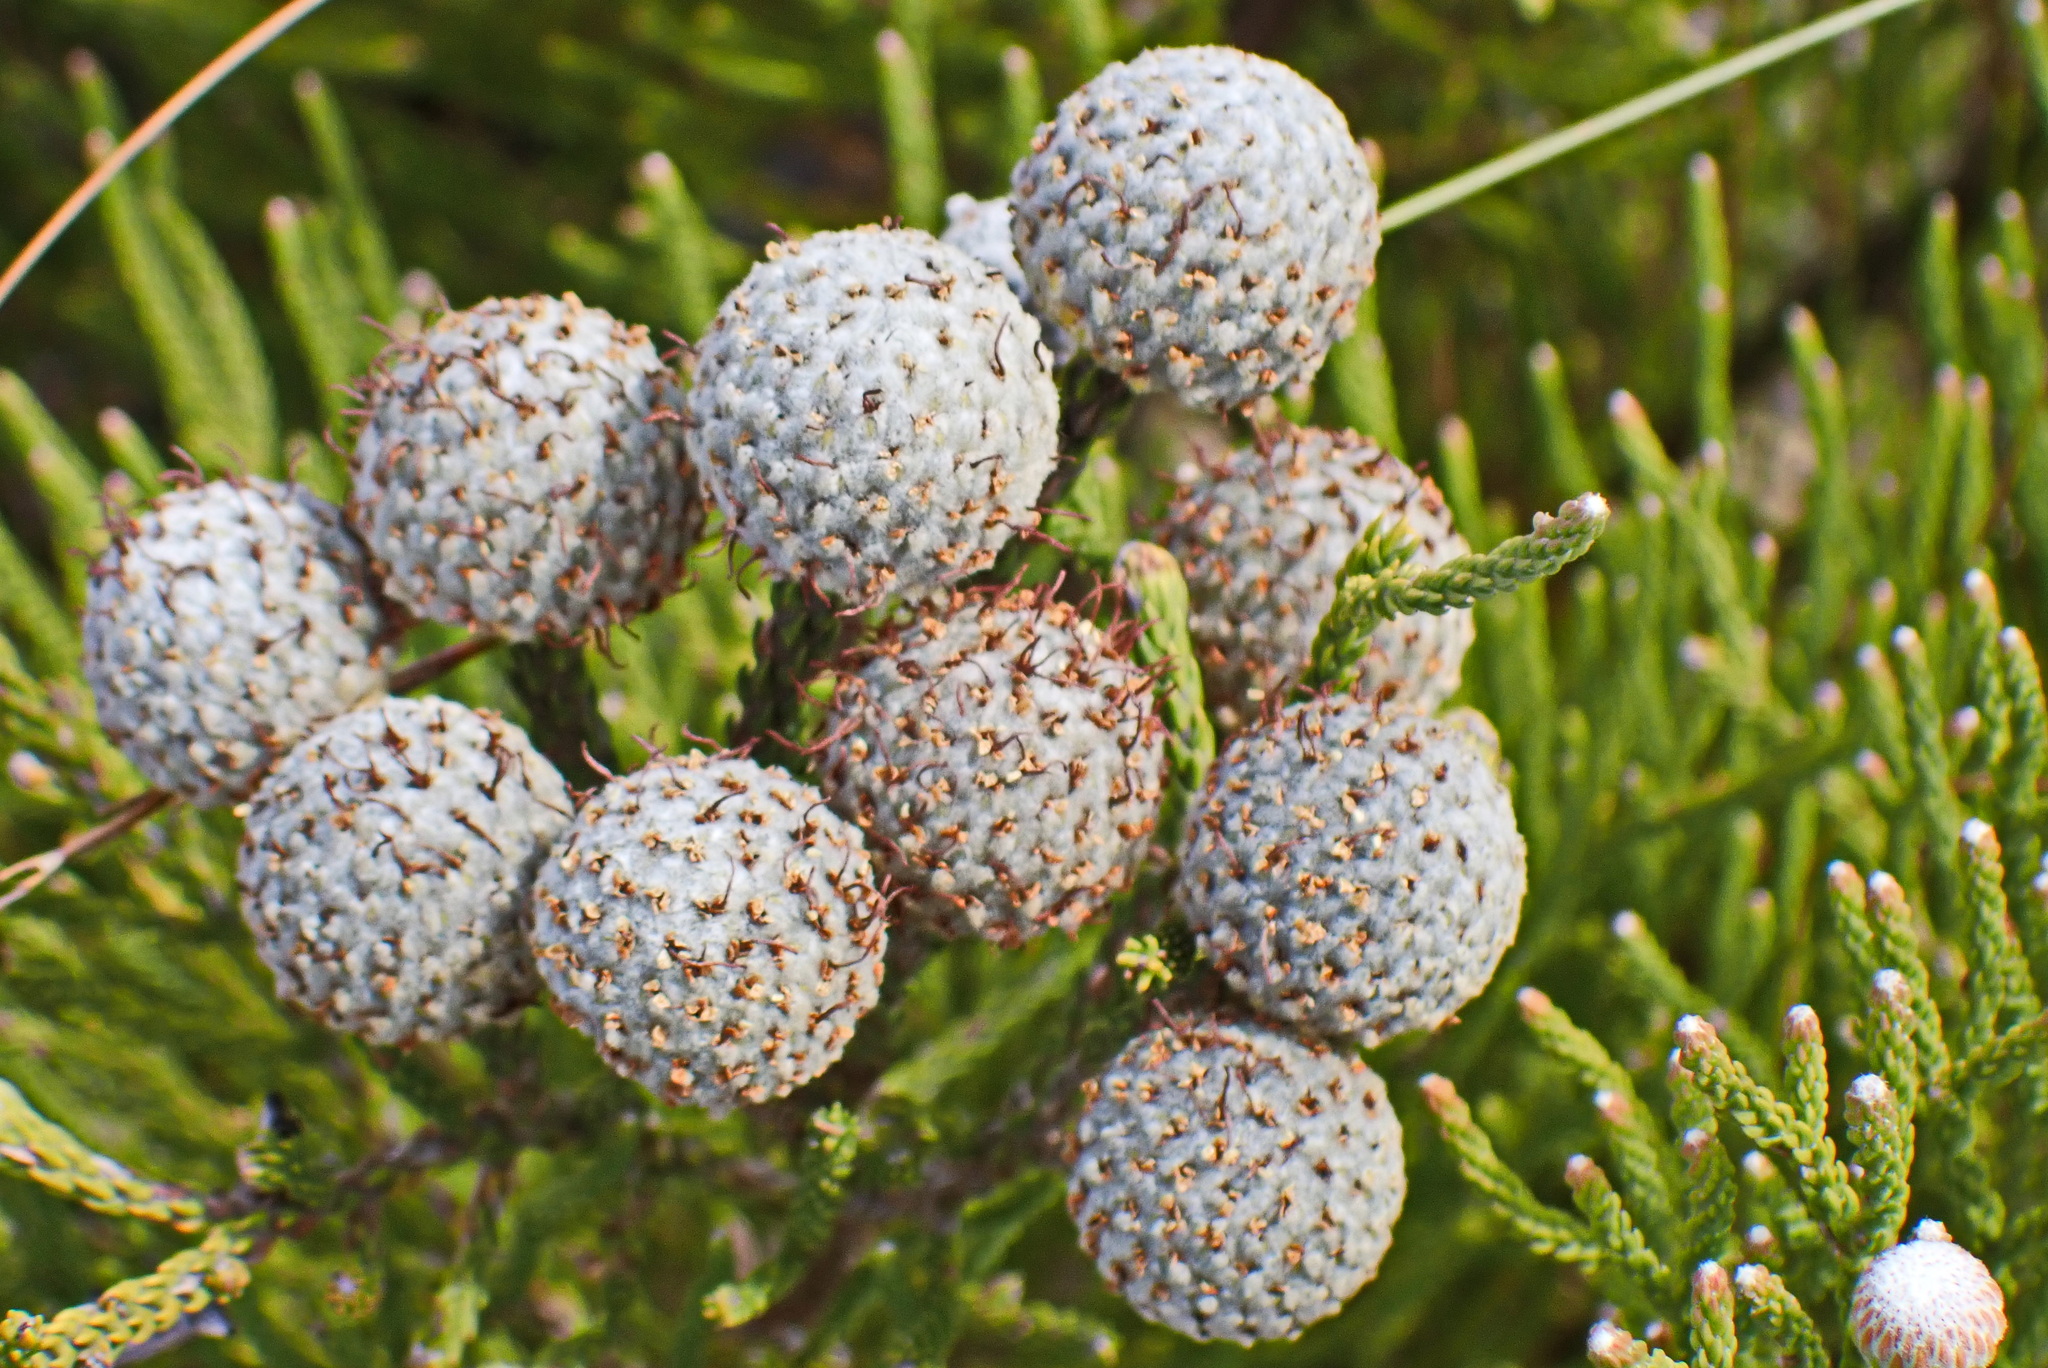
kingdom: Plantae
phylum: Tracheophyta
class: Magnoliopsida
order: Bruniales
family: Bruniaceae
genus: Brunia
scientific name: Brunia noduliflora
